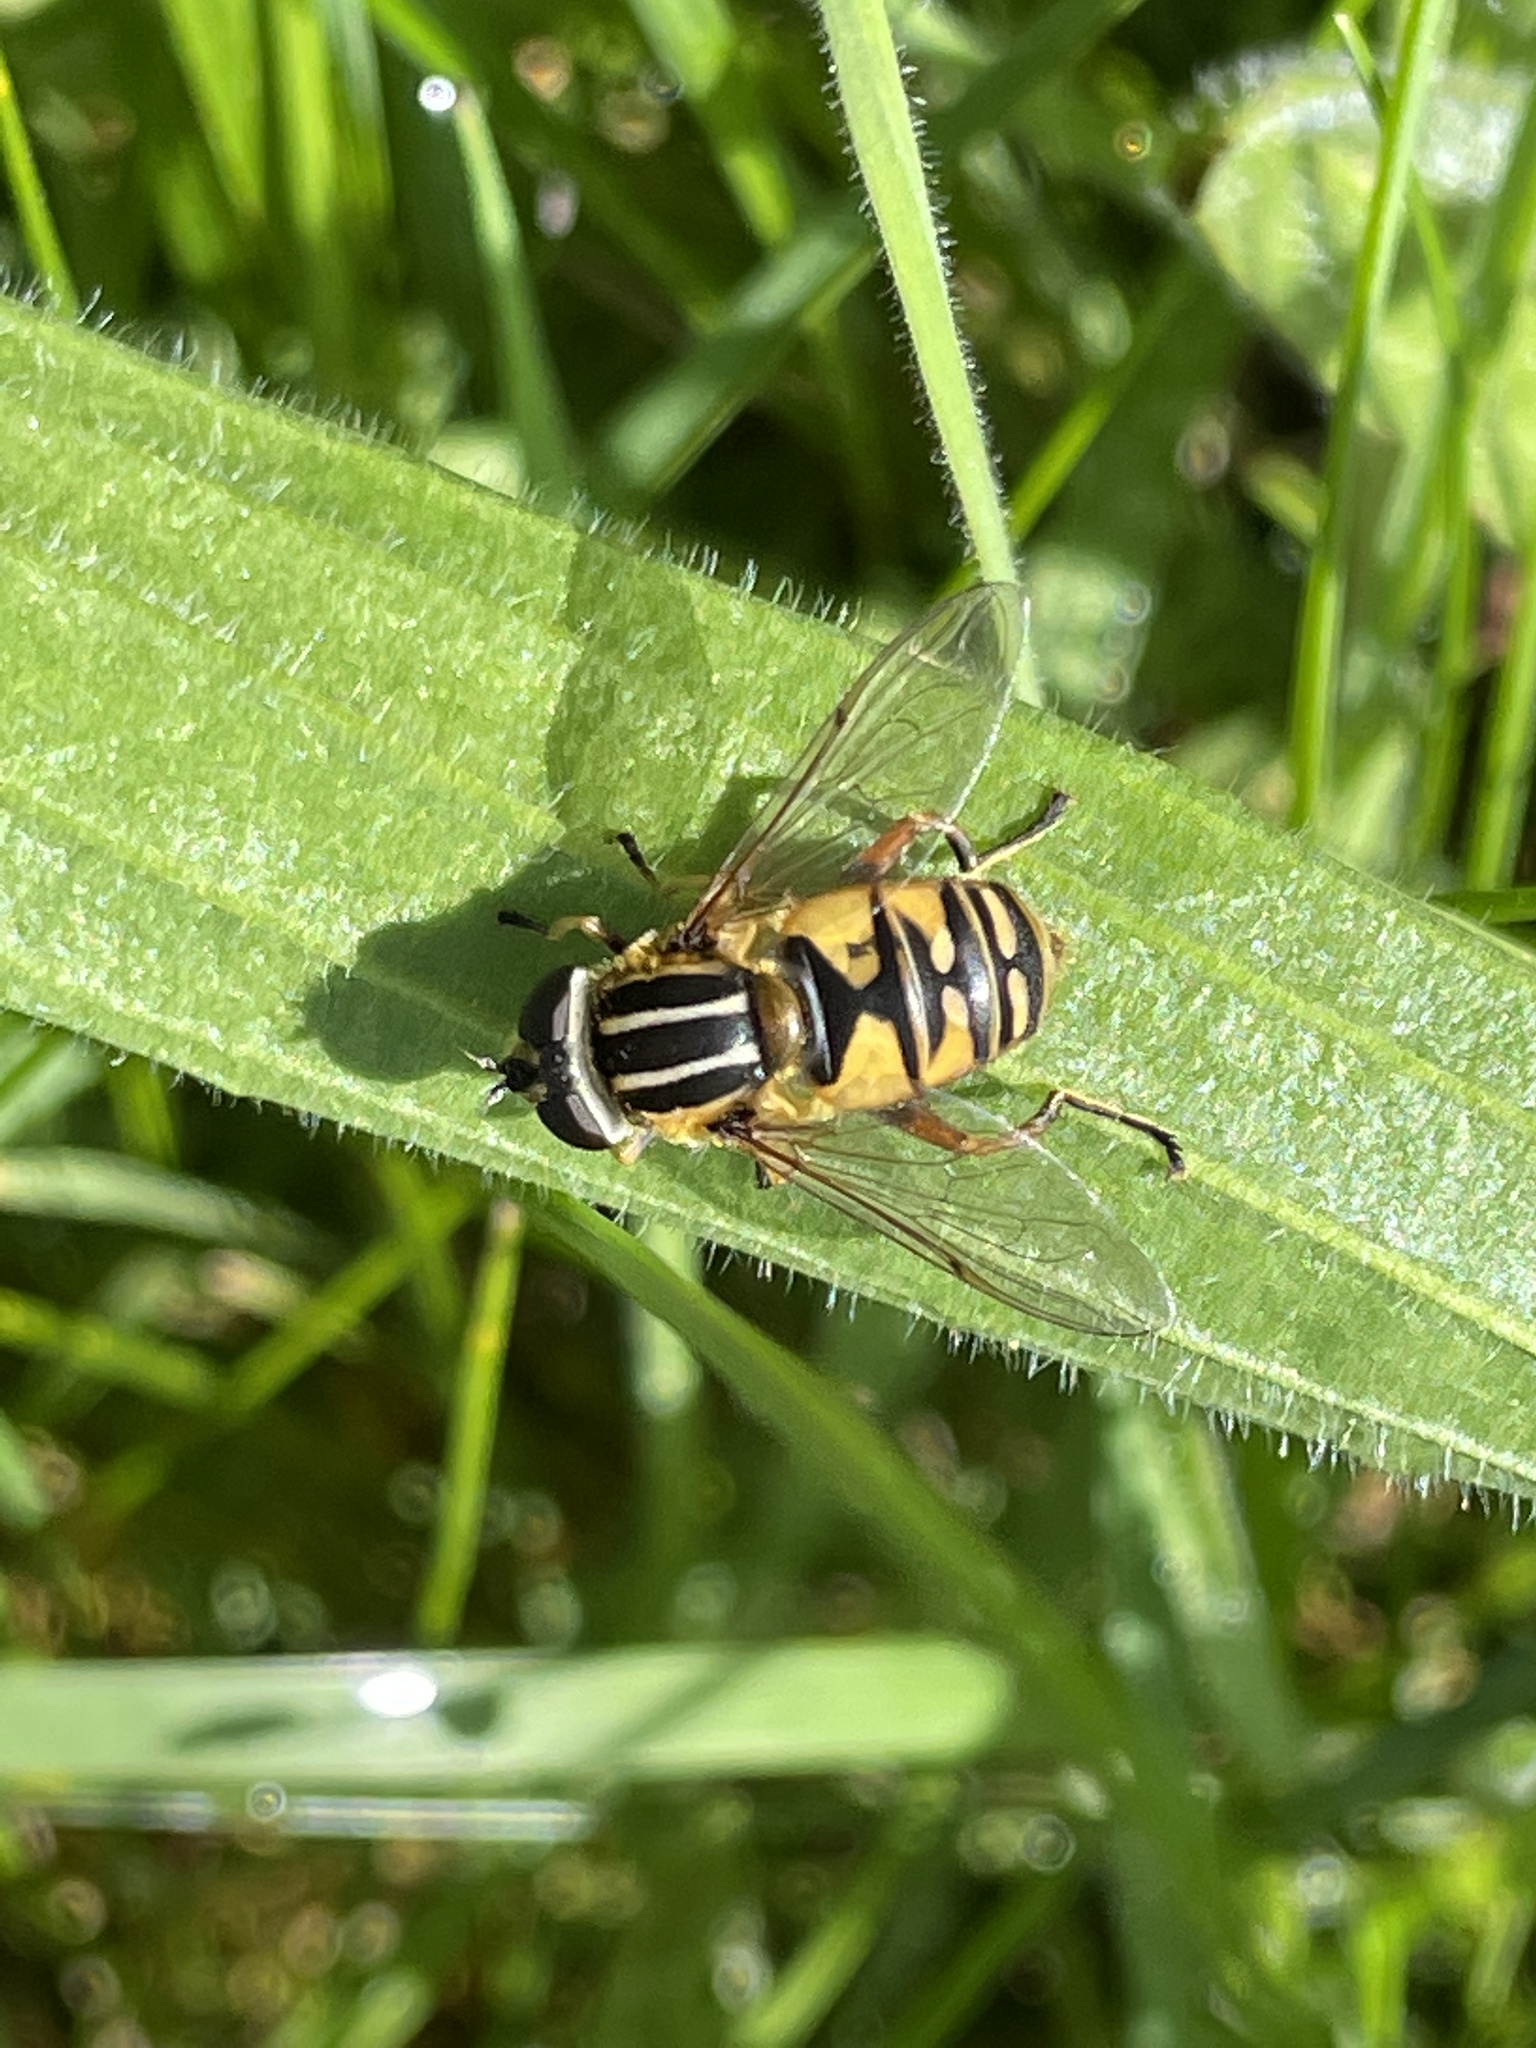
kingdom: Animalia
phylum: Arthropoda
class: Insecta
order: Diptera
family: Syrphidae
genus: Helophilus
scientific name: Helophilus pendulus
